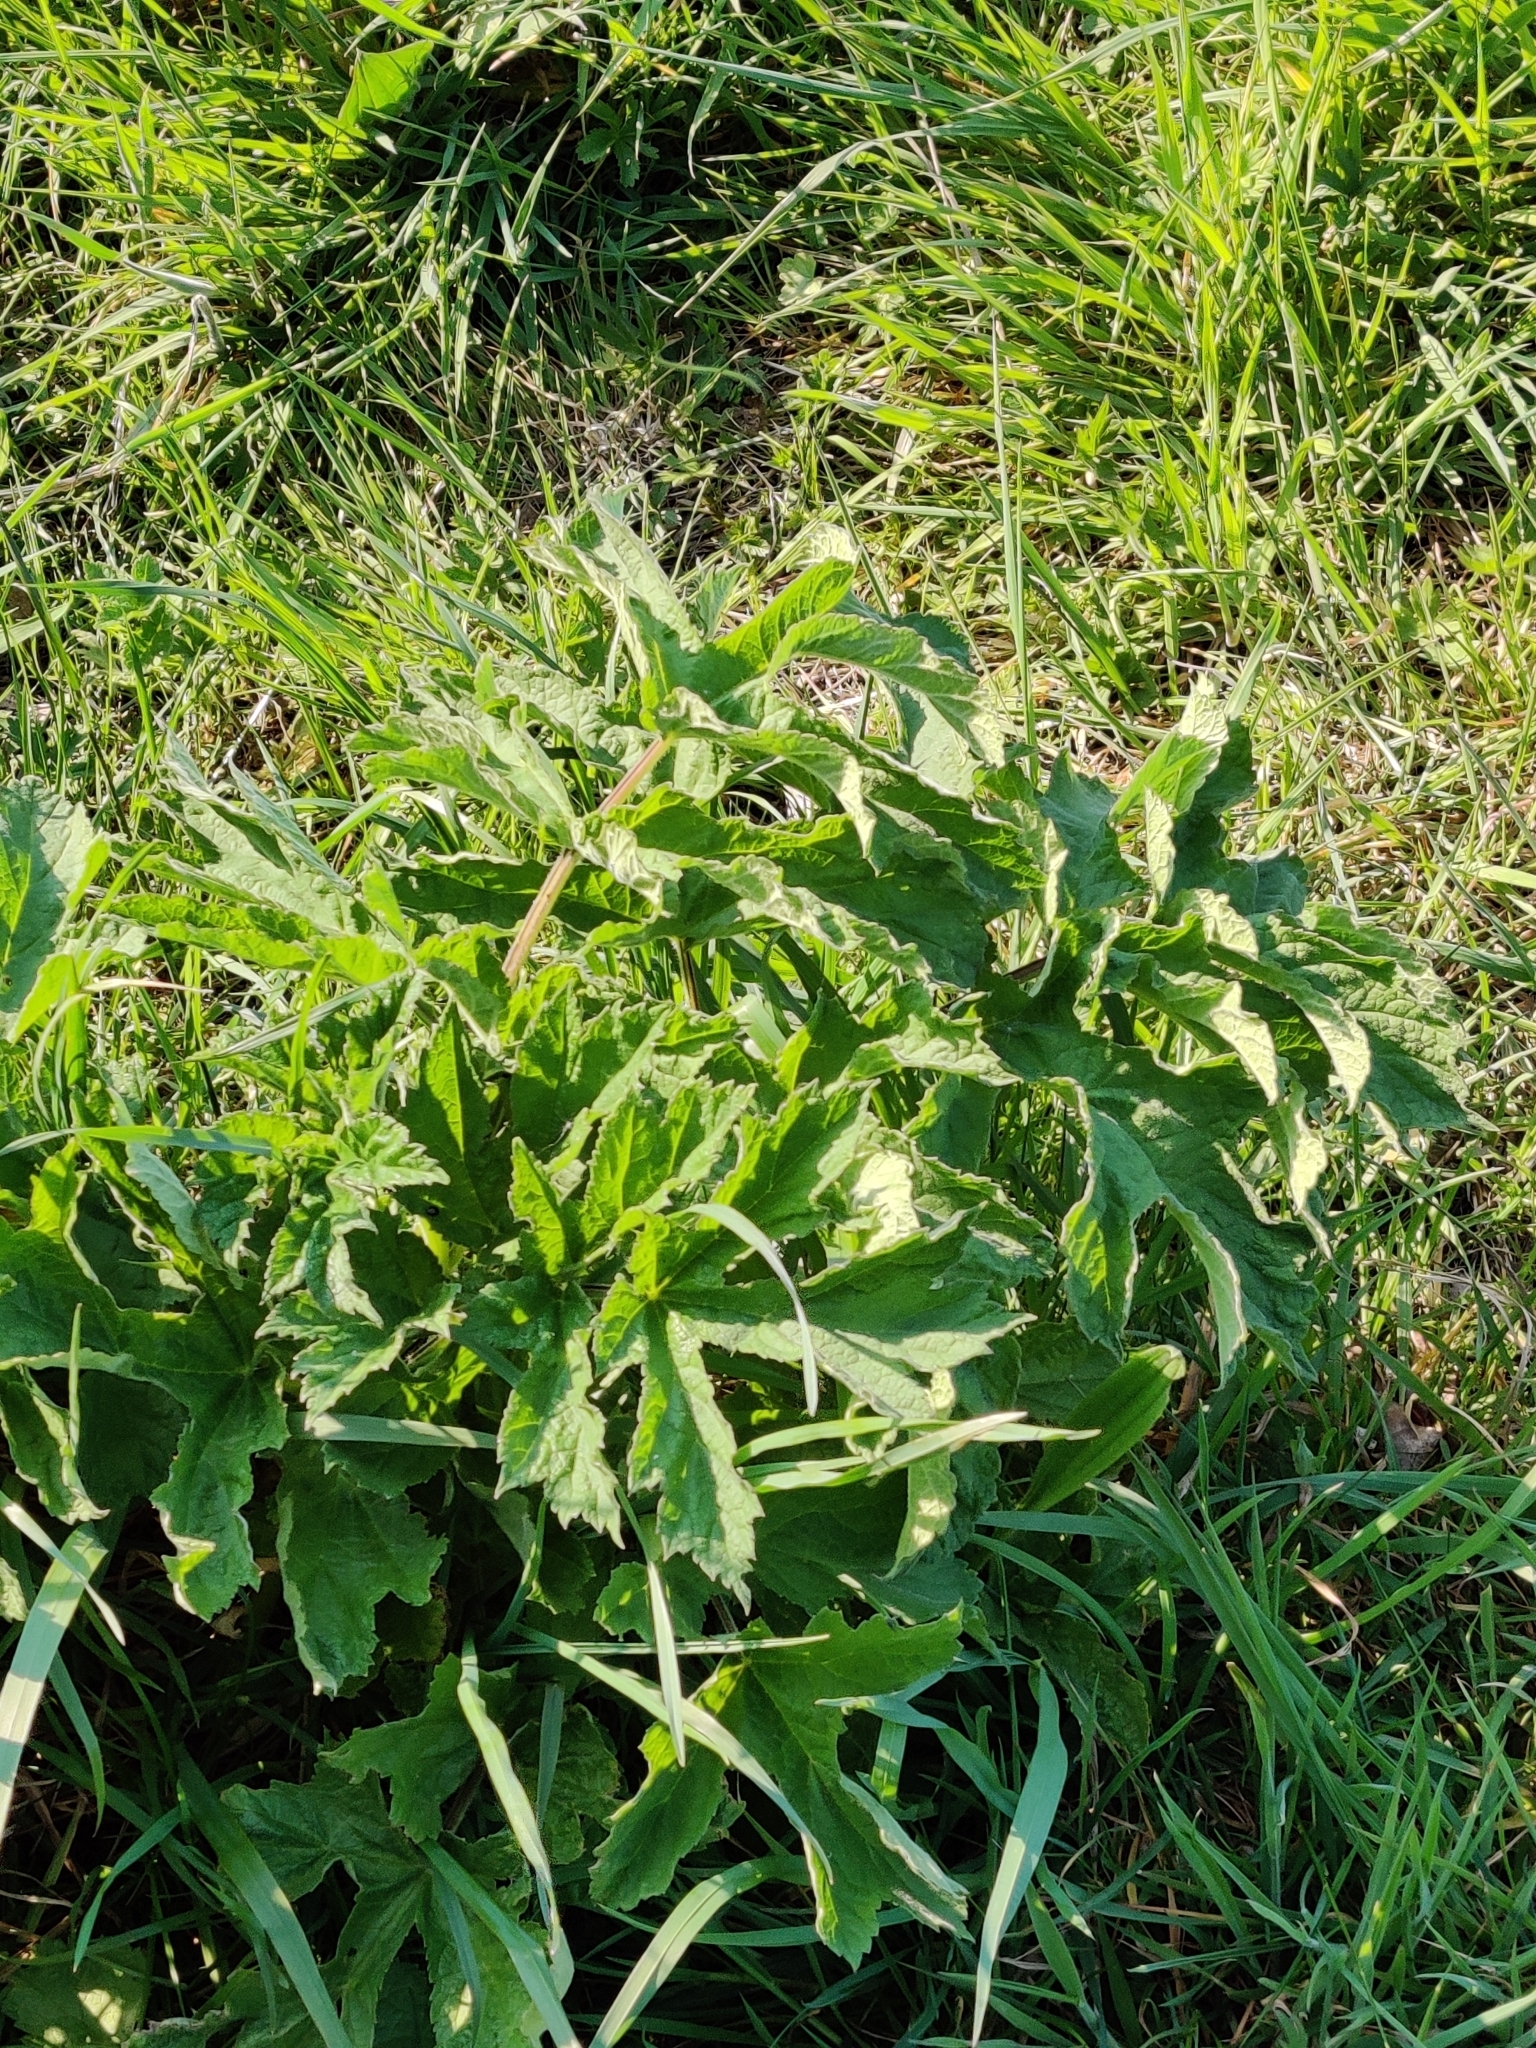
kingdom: Plantae
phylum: Tracheophyta
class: Magnoliopsida
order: Apiales
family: Apiaceae
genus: Heracleum
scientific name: Heracleum sphondylium
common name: Hogweed
